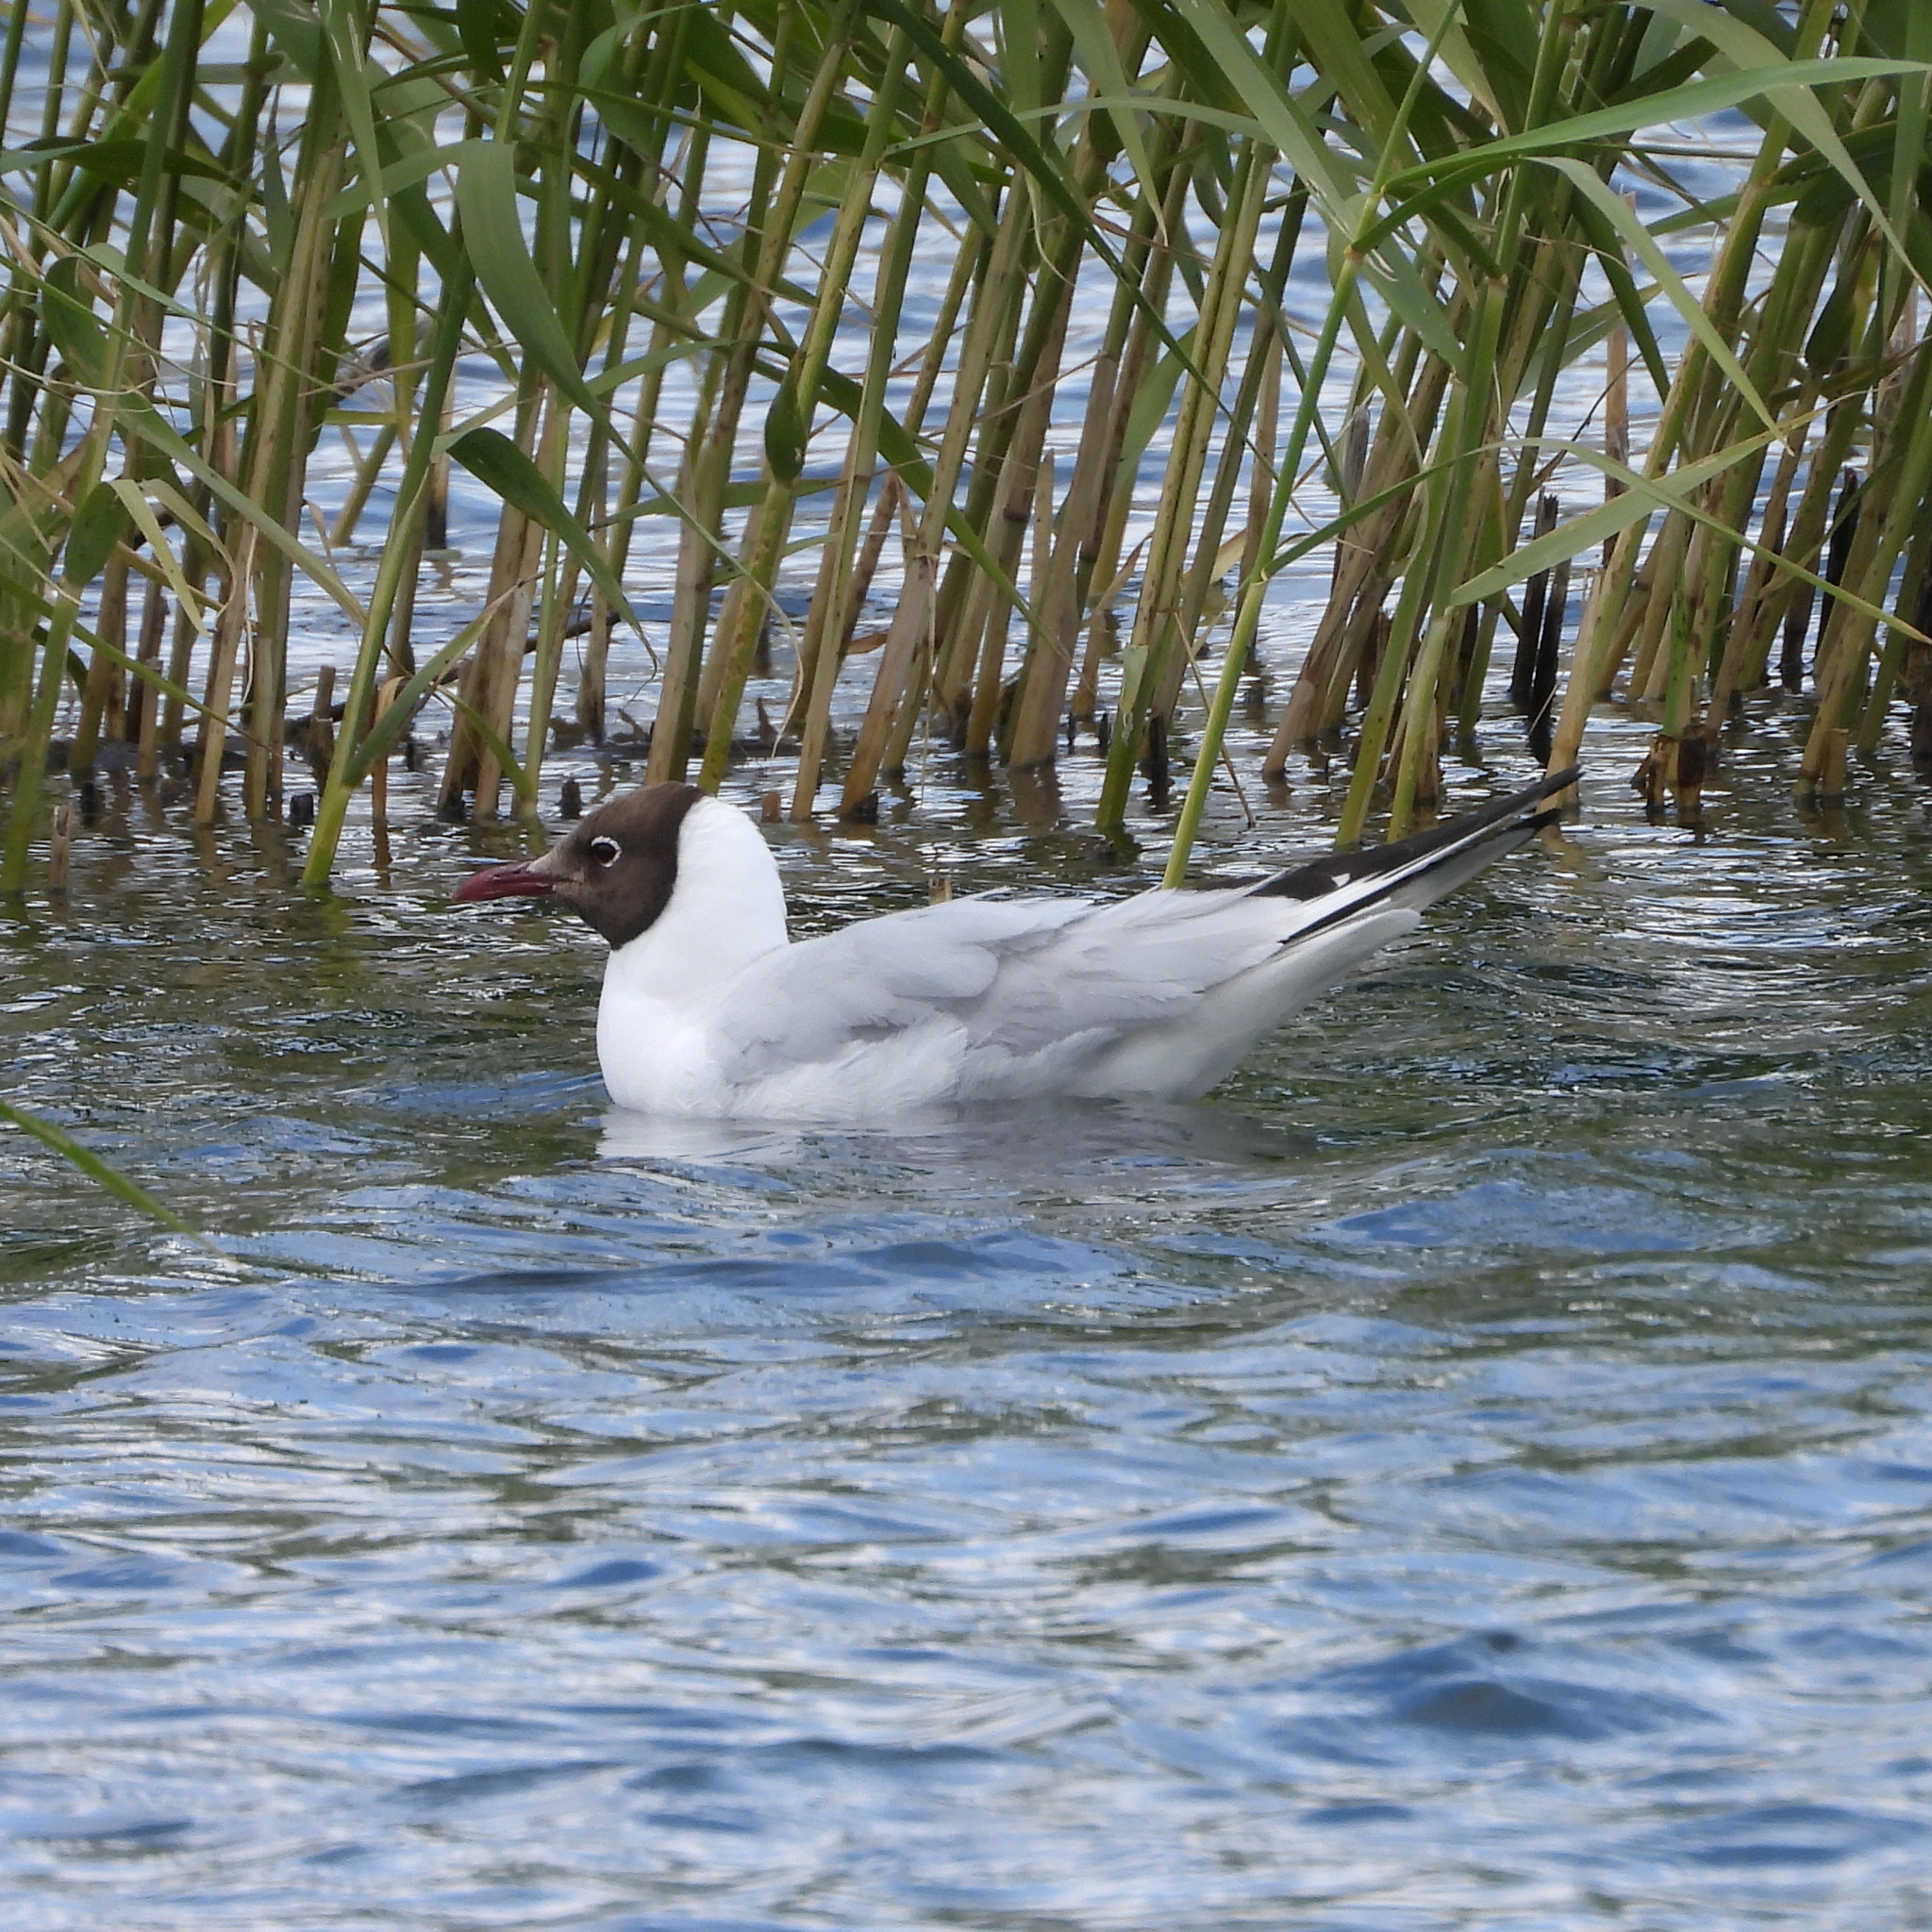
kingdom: Animalia
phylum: Chordata
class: Aves
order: Charadriiformes
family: Laridae
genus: Chroicocephalus
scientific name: Chroicocephalus ridibundus
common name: Black-headed gull
